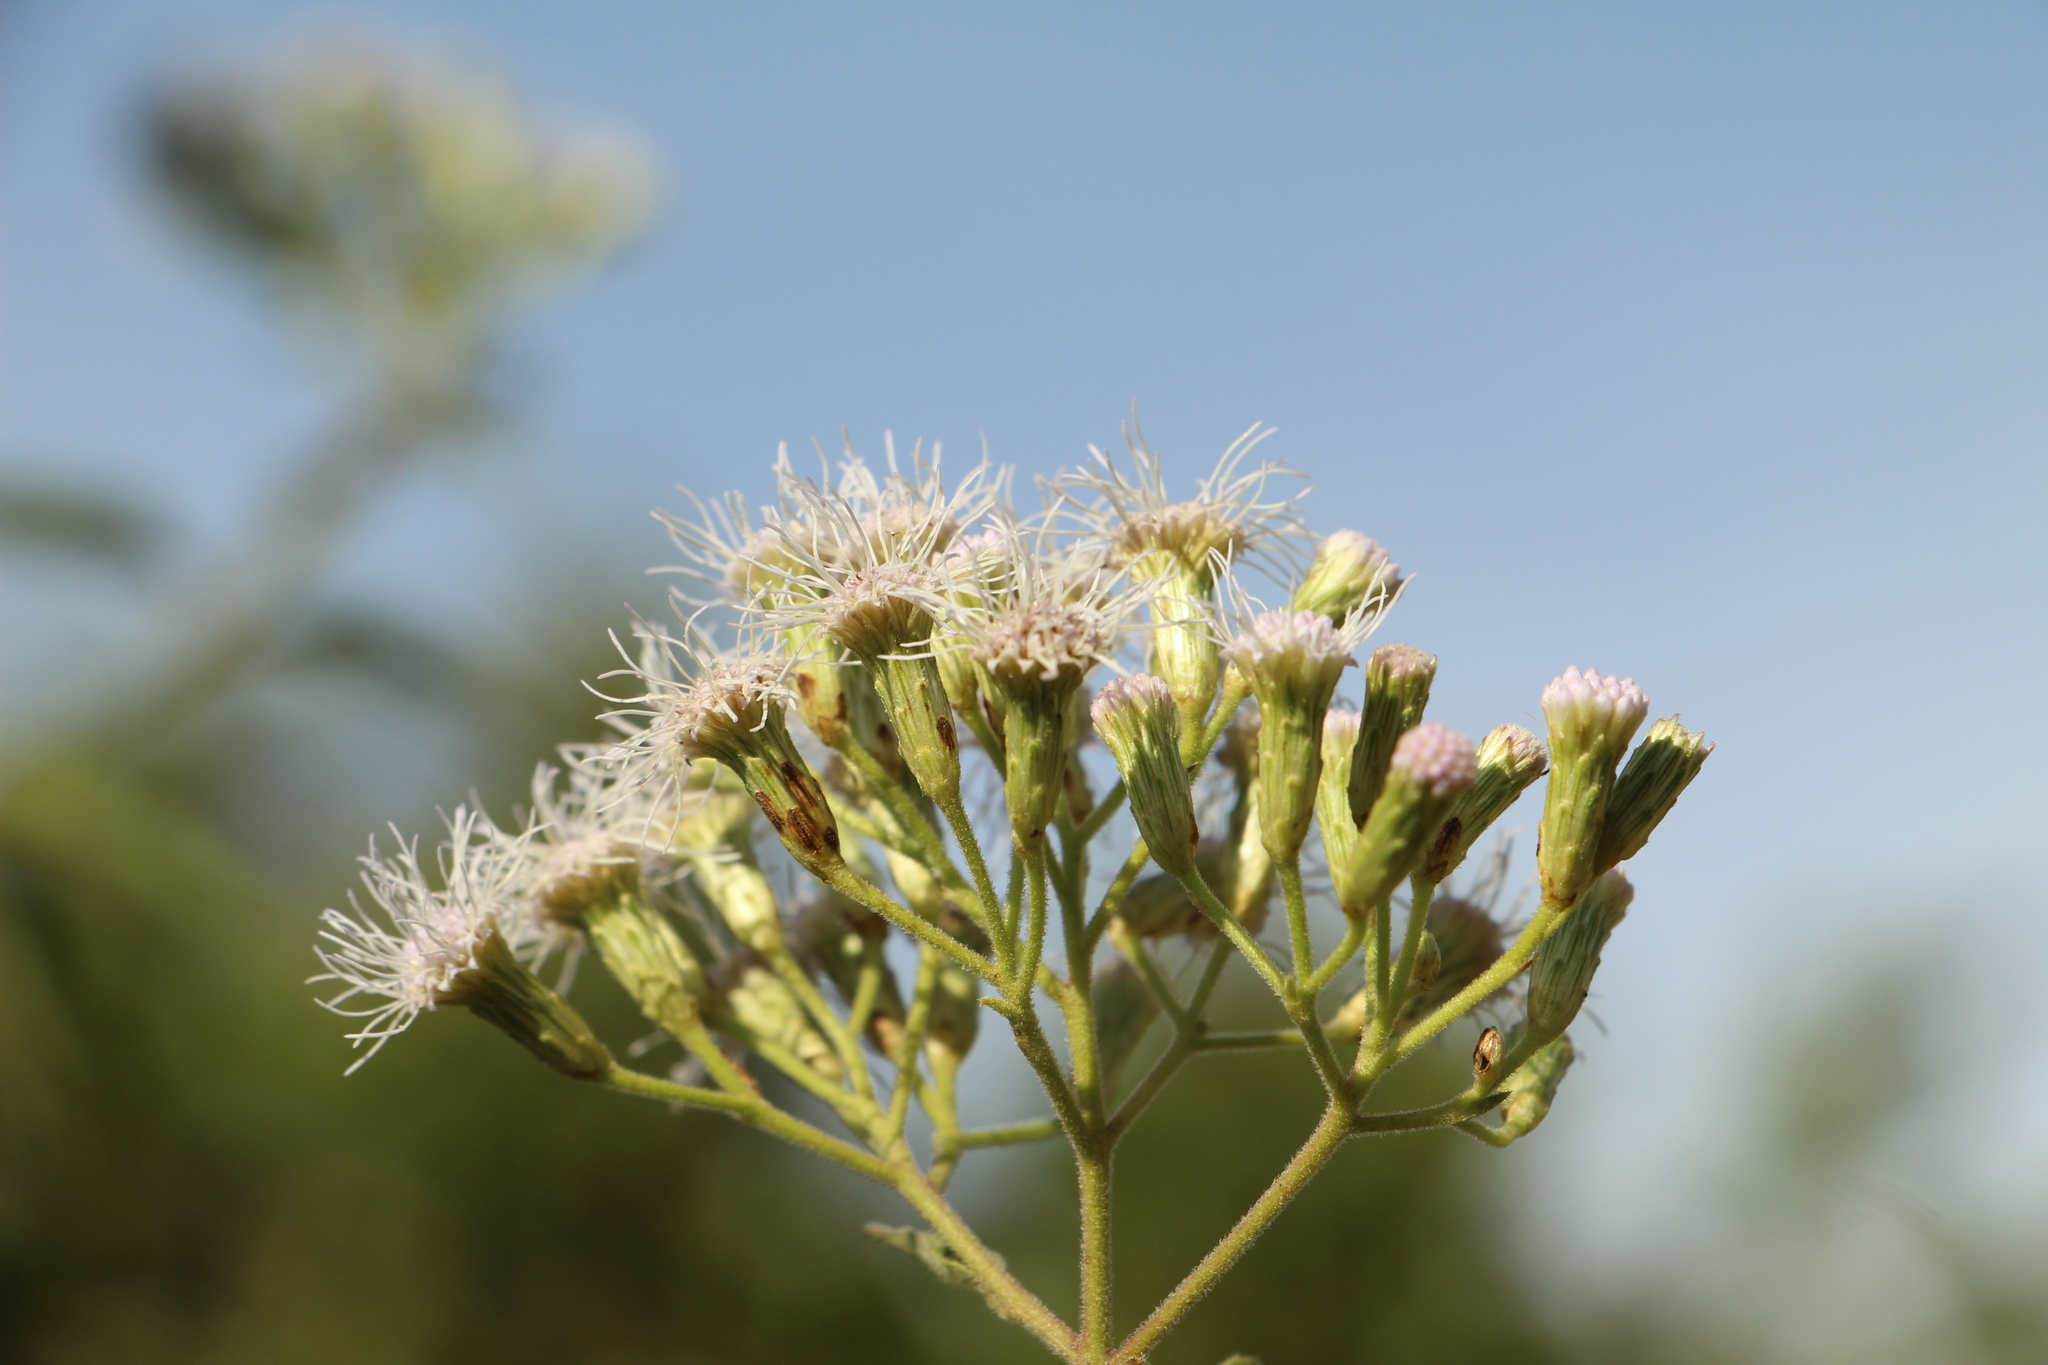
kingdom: Plantae
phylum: Tracheophyta
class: Magnoliopsida
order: Asterales
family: Asteraceae
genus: Chromolaena
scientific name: Chromolaena odorata
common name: Siamweed
